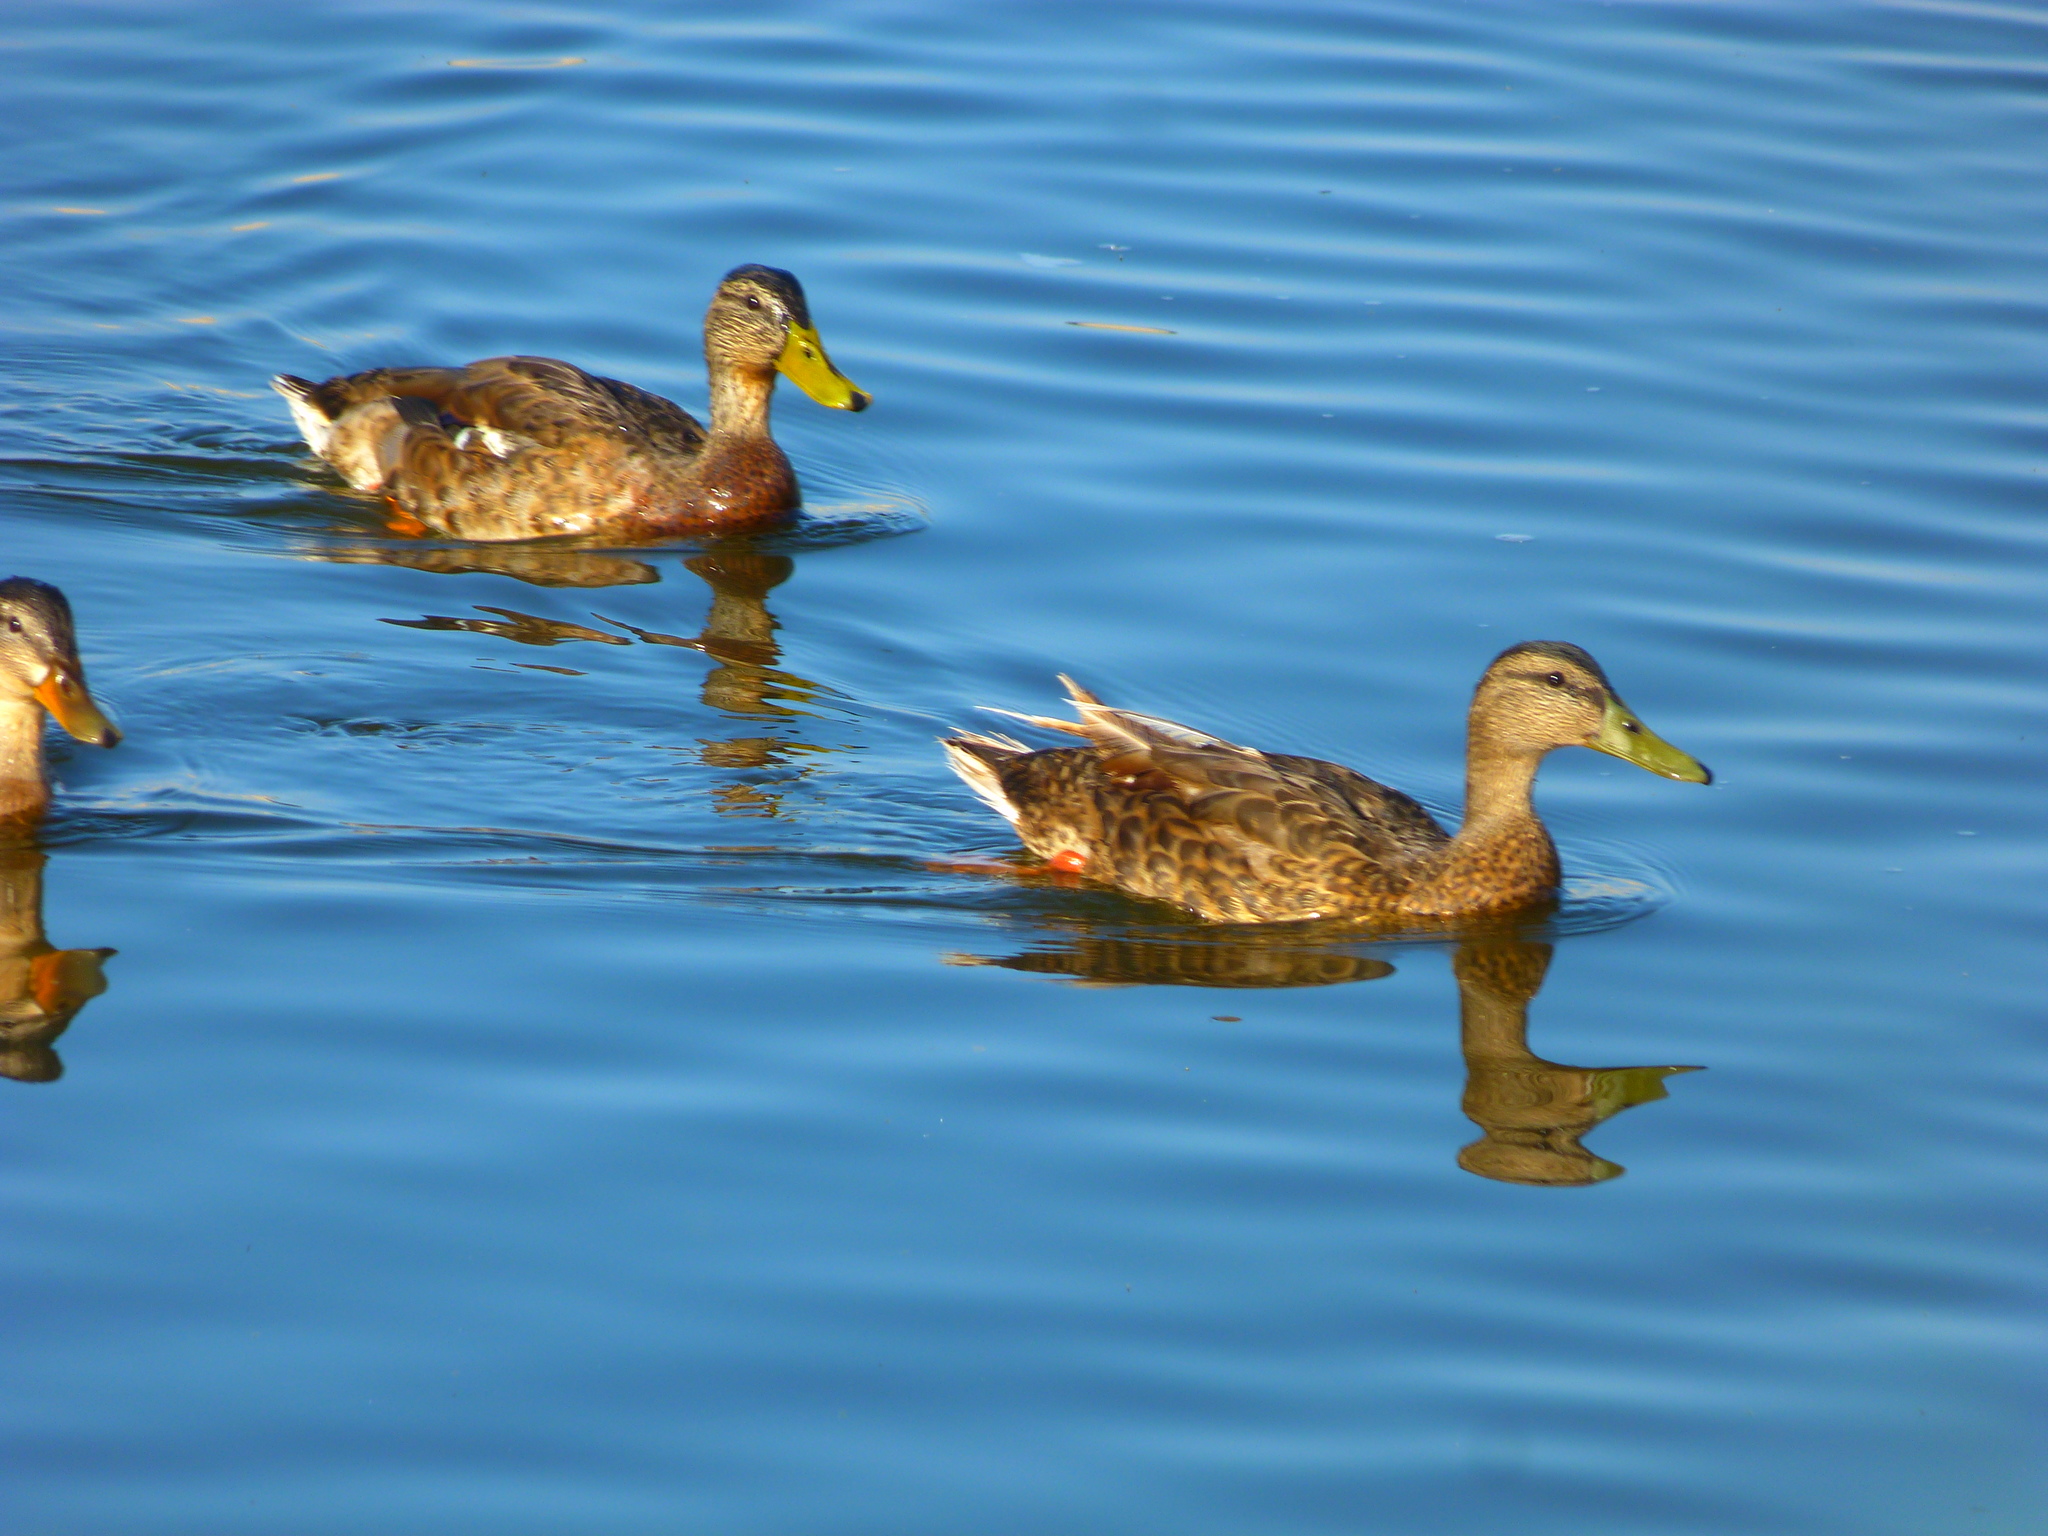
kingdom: Animalia
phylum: Chordata
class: Aves
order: Anseriformes
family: Anatidae
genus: Anas
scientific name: Anas platyrhynchos
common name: Mallard
